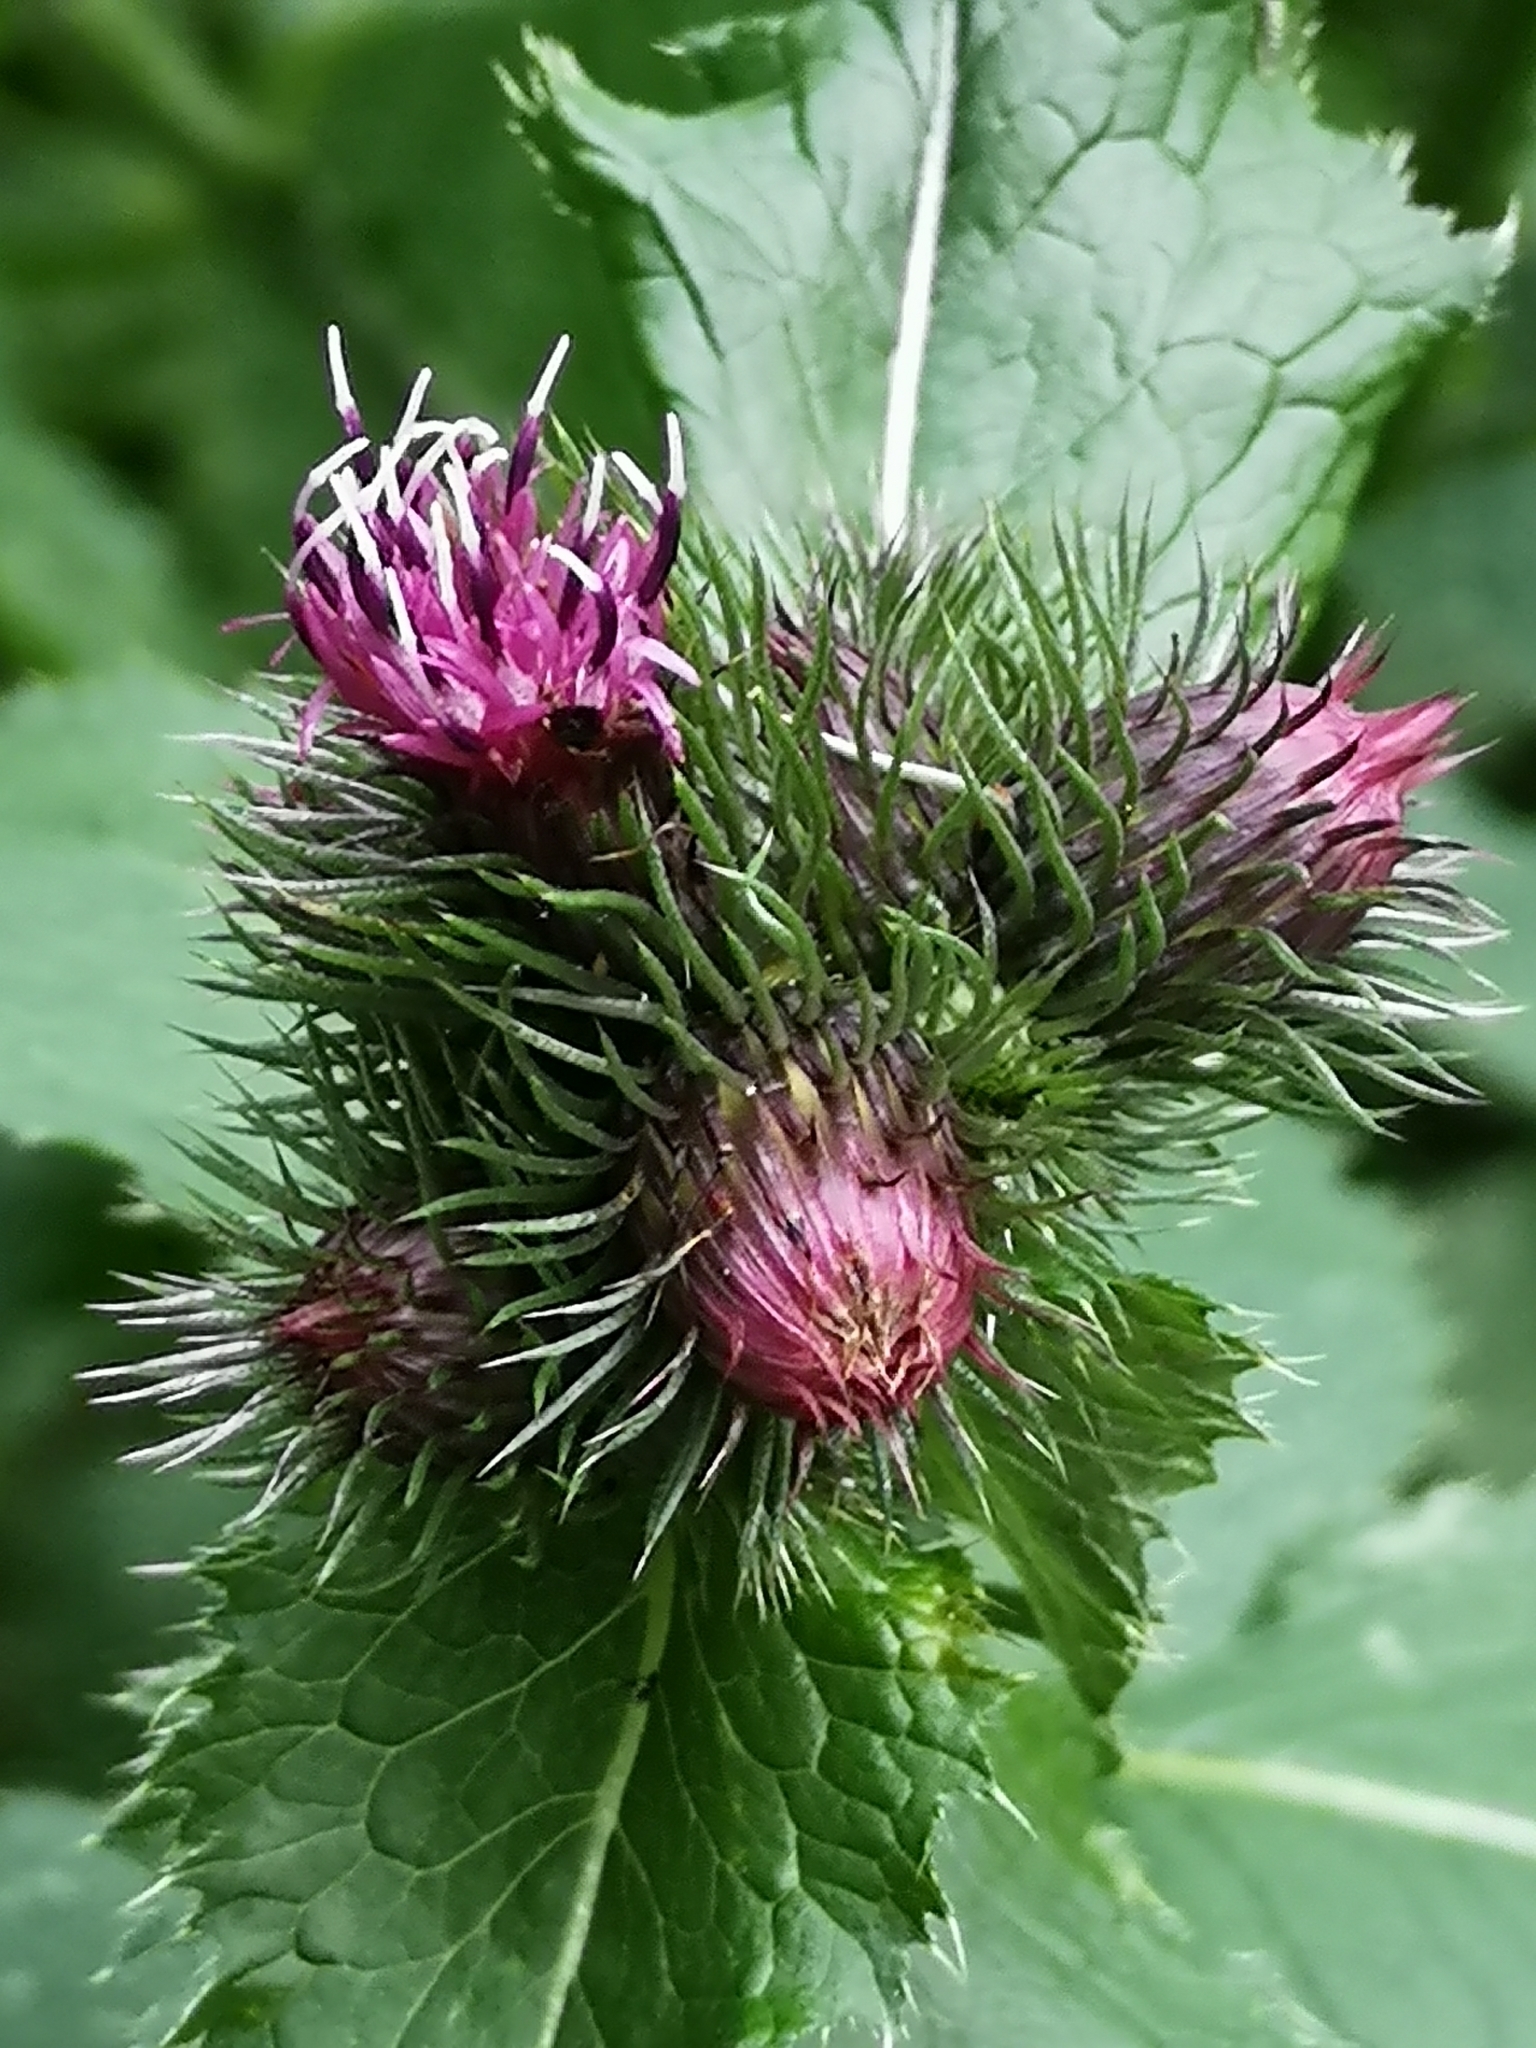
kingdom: Plantae
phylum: Tracheophyta
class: Magnoliopsida
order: Asterales
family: Asteraceae
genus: Carduus
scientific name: Carduus personata
